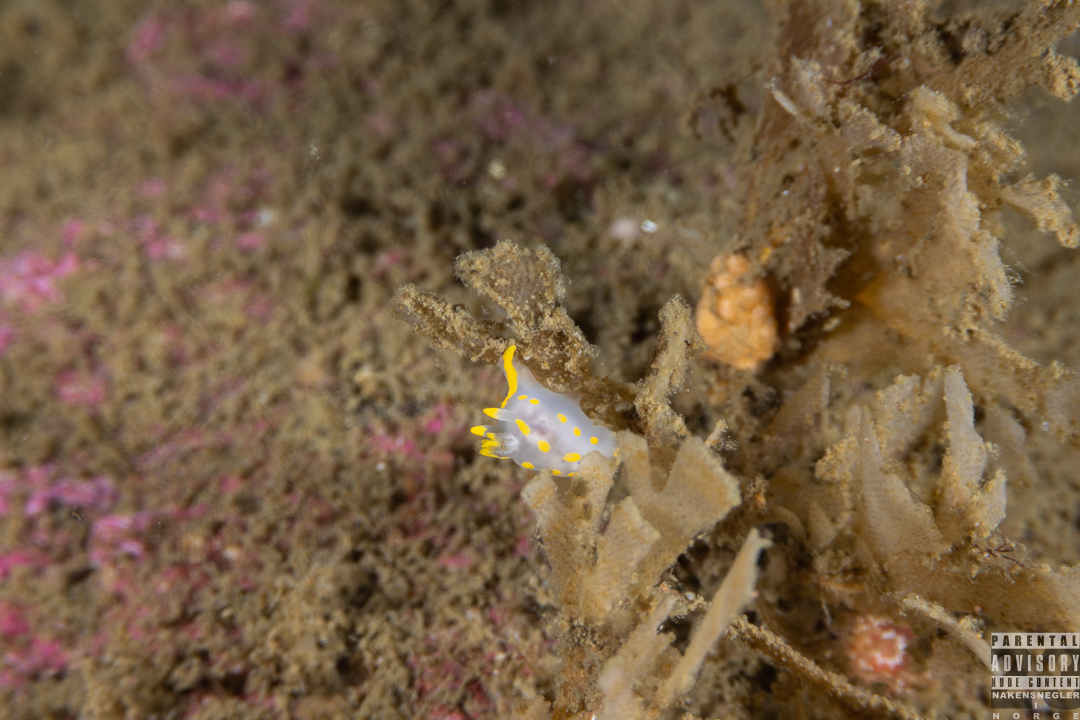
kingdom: Animalia
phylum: Mollusca
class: Gastropoda
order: Nudibranchia
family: Polyceridae
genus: Polycera
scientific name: Polycera quadrilineata
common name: Four-striped polycera
